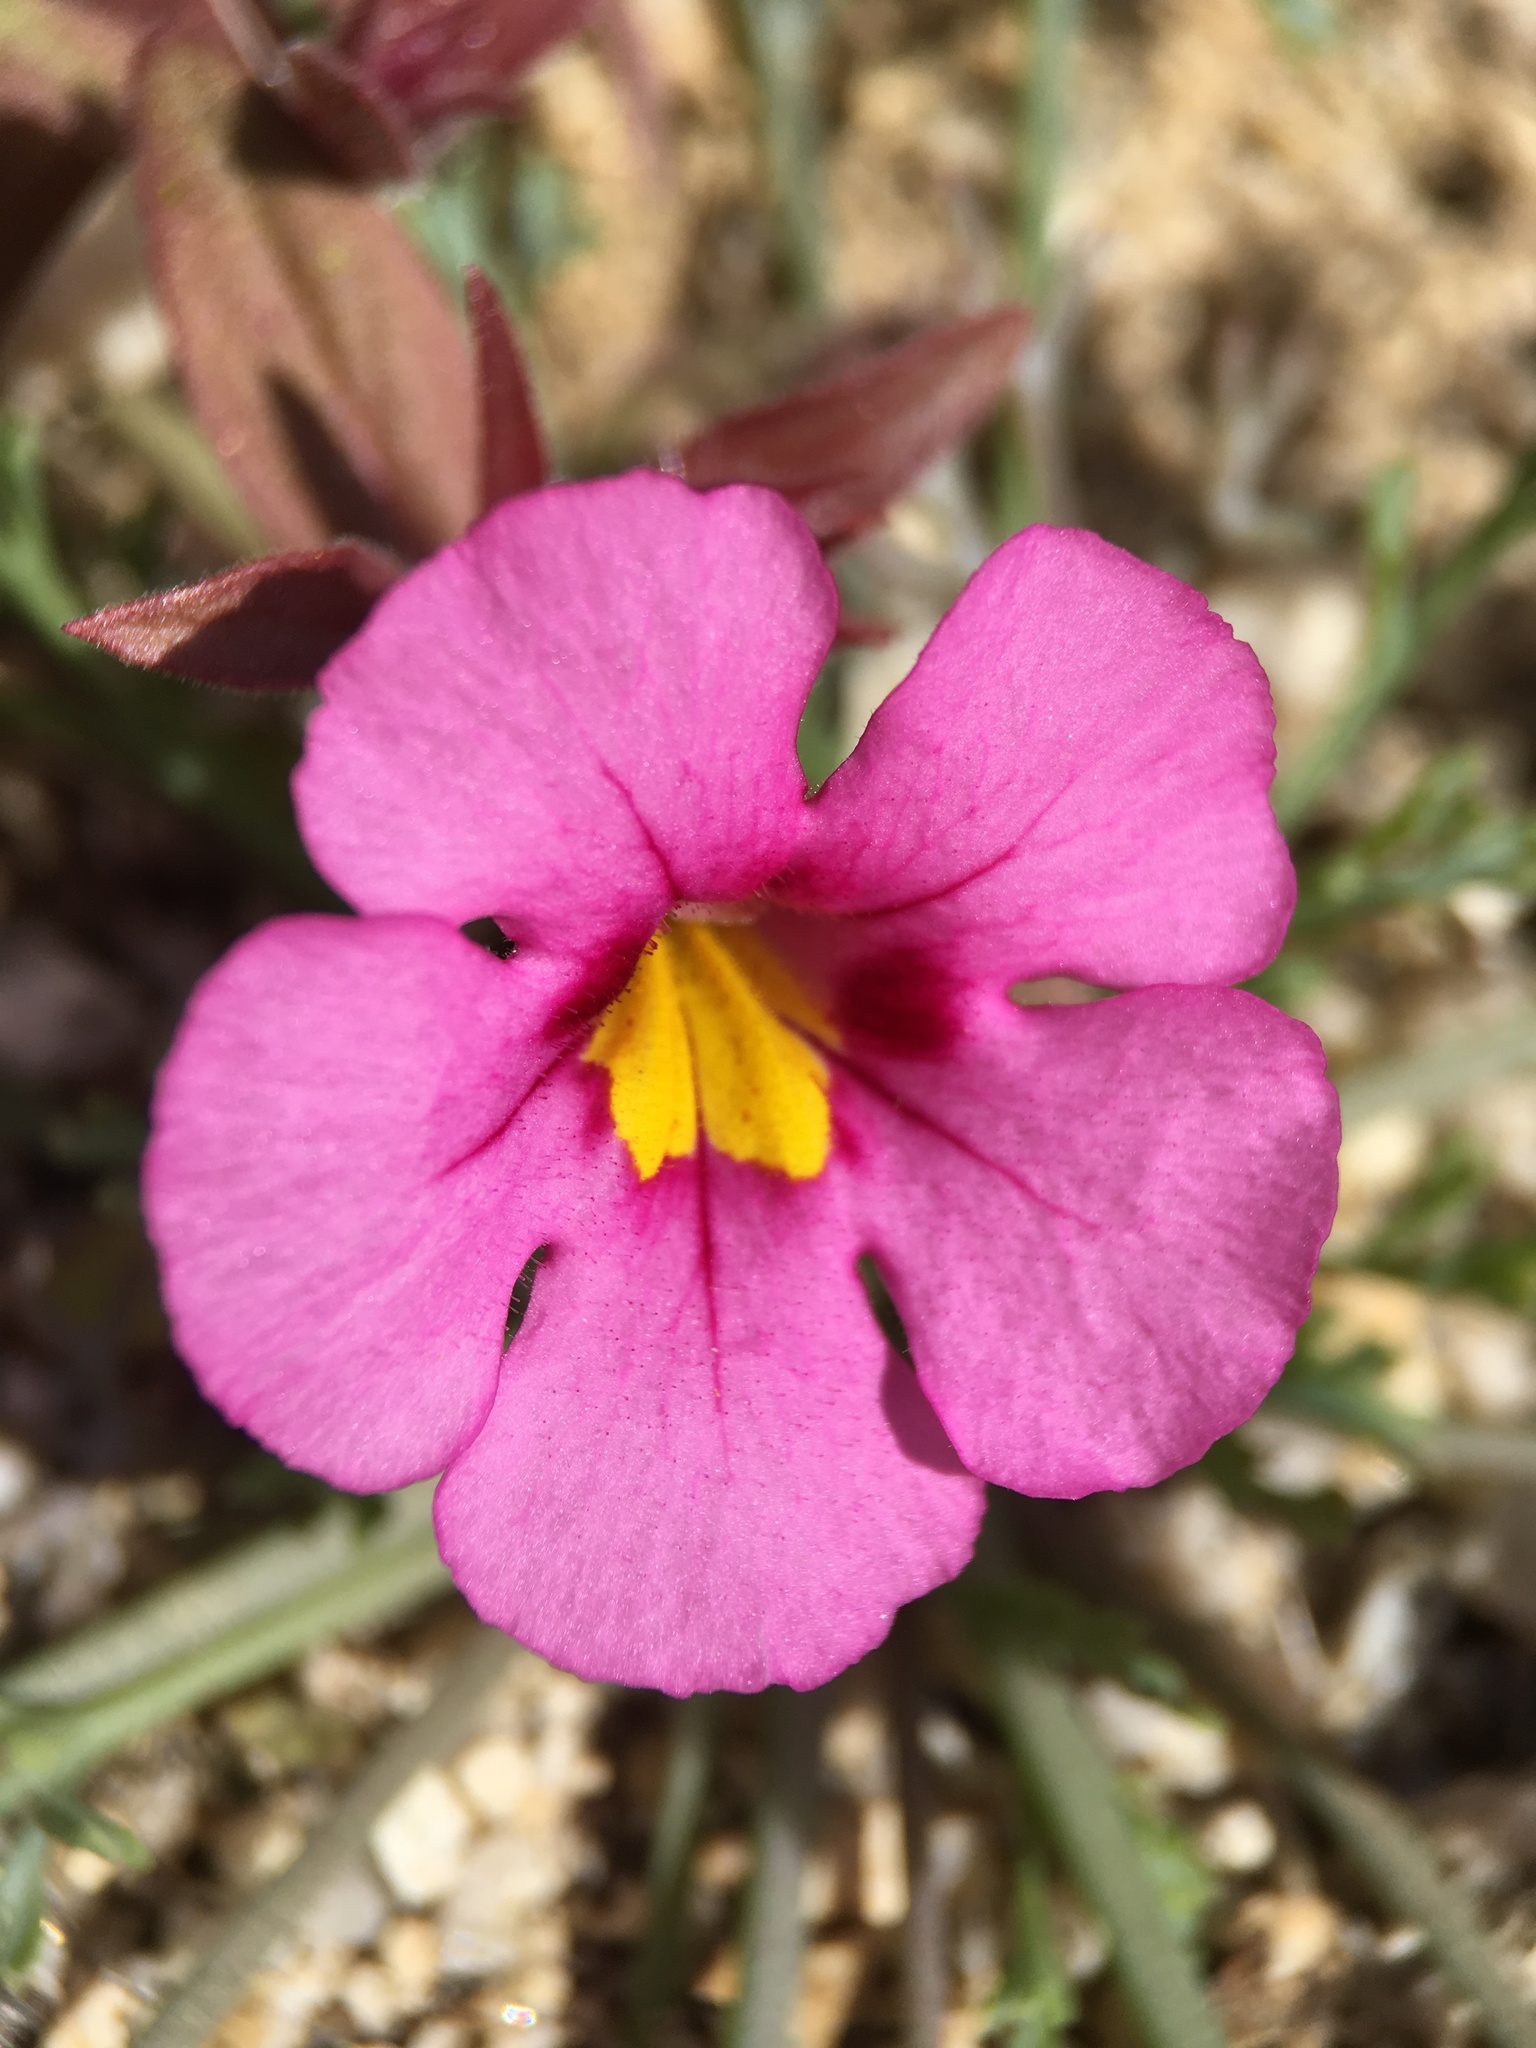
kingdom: Plantae
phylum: Tracheophyta
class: Magnoliopsida
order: Lamiales
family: Phrymaceae
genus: Diplacus
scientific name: Diplacus bigelovii
